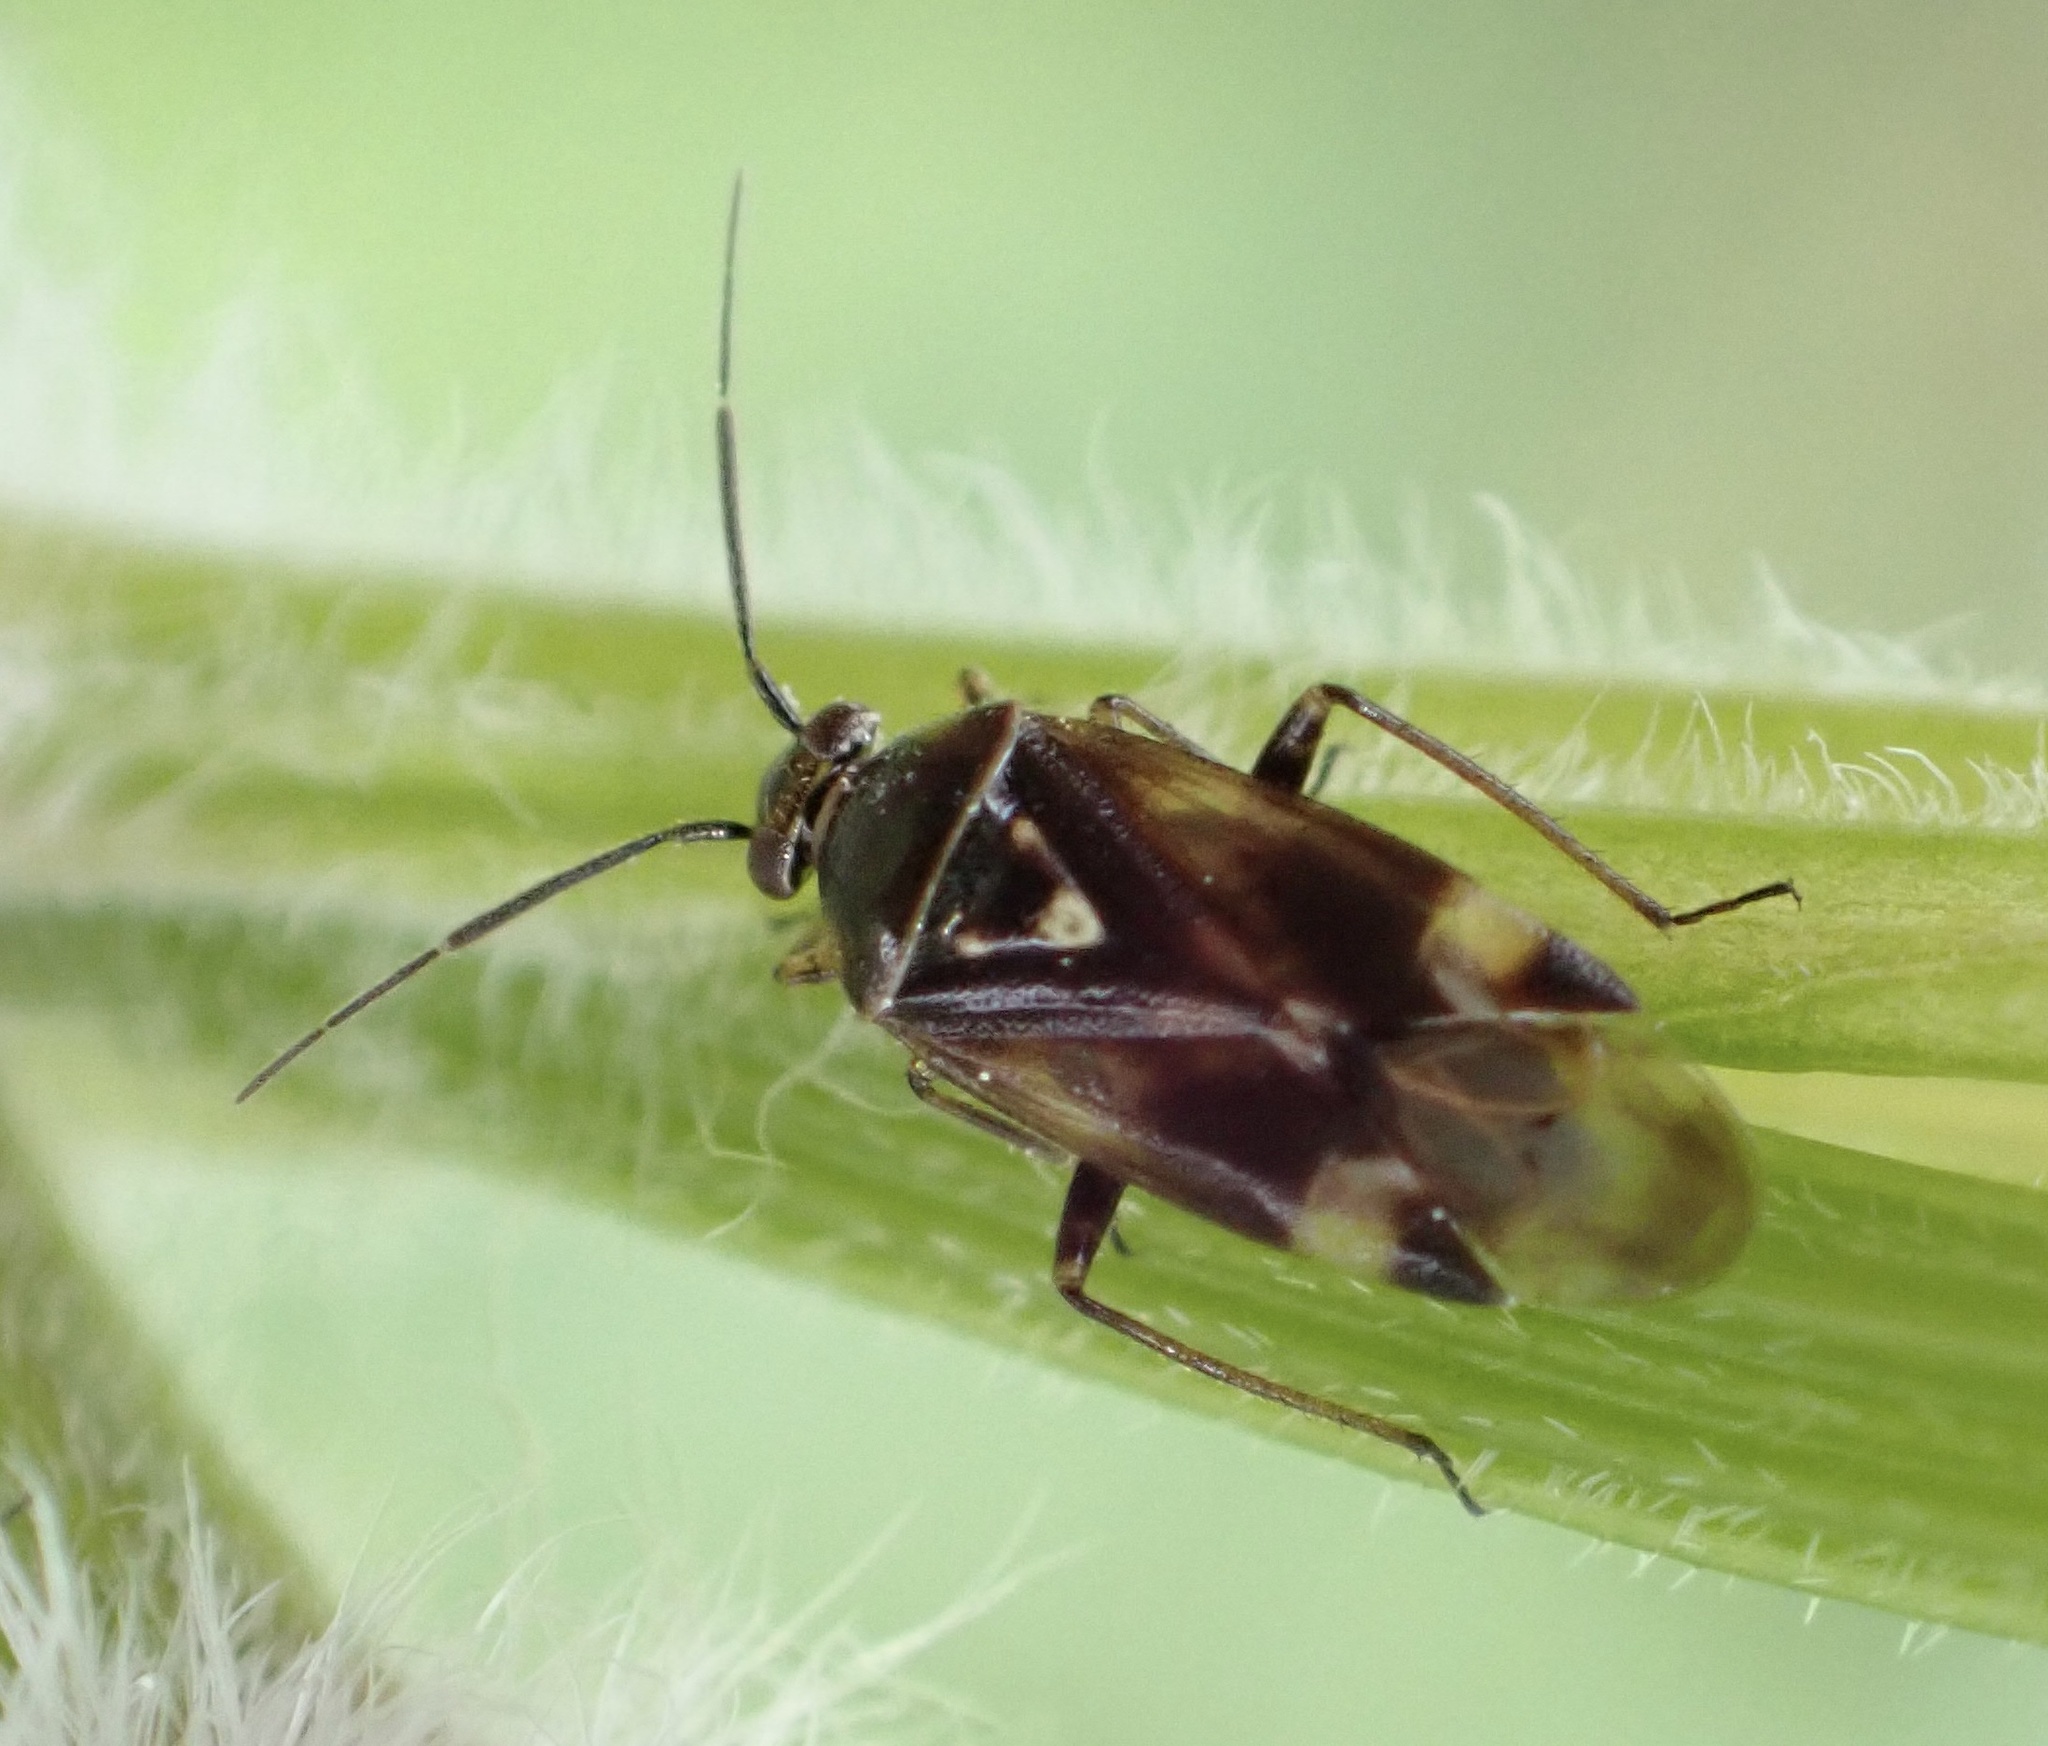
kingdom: Animalia
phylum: Arthropoda
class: Insecta
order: Hemiptera
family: Miridae
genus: Orthops
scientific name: Orthops basalis
